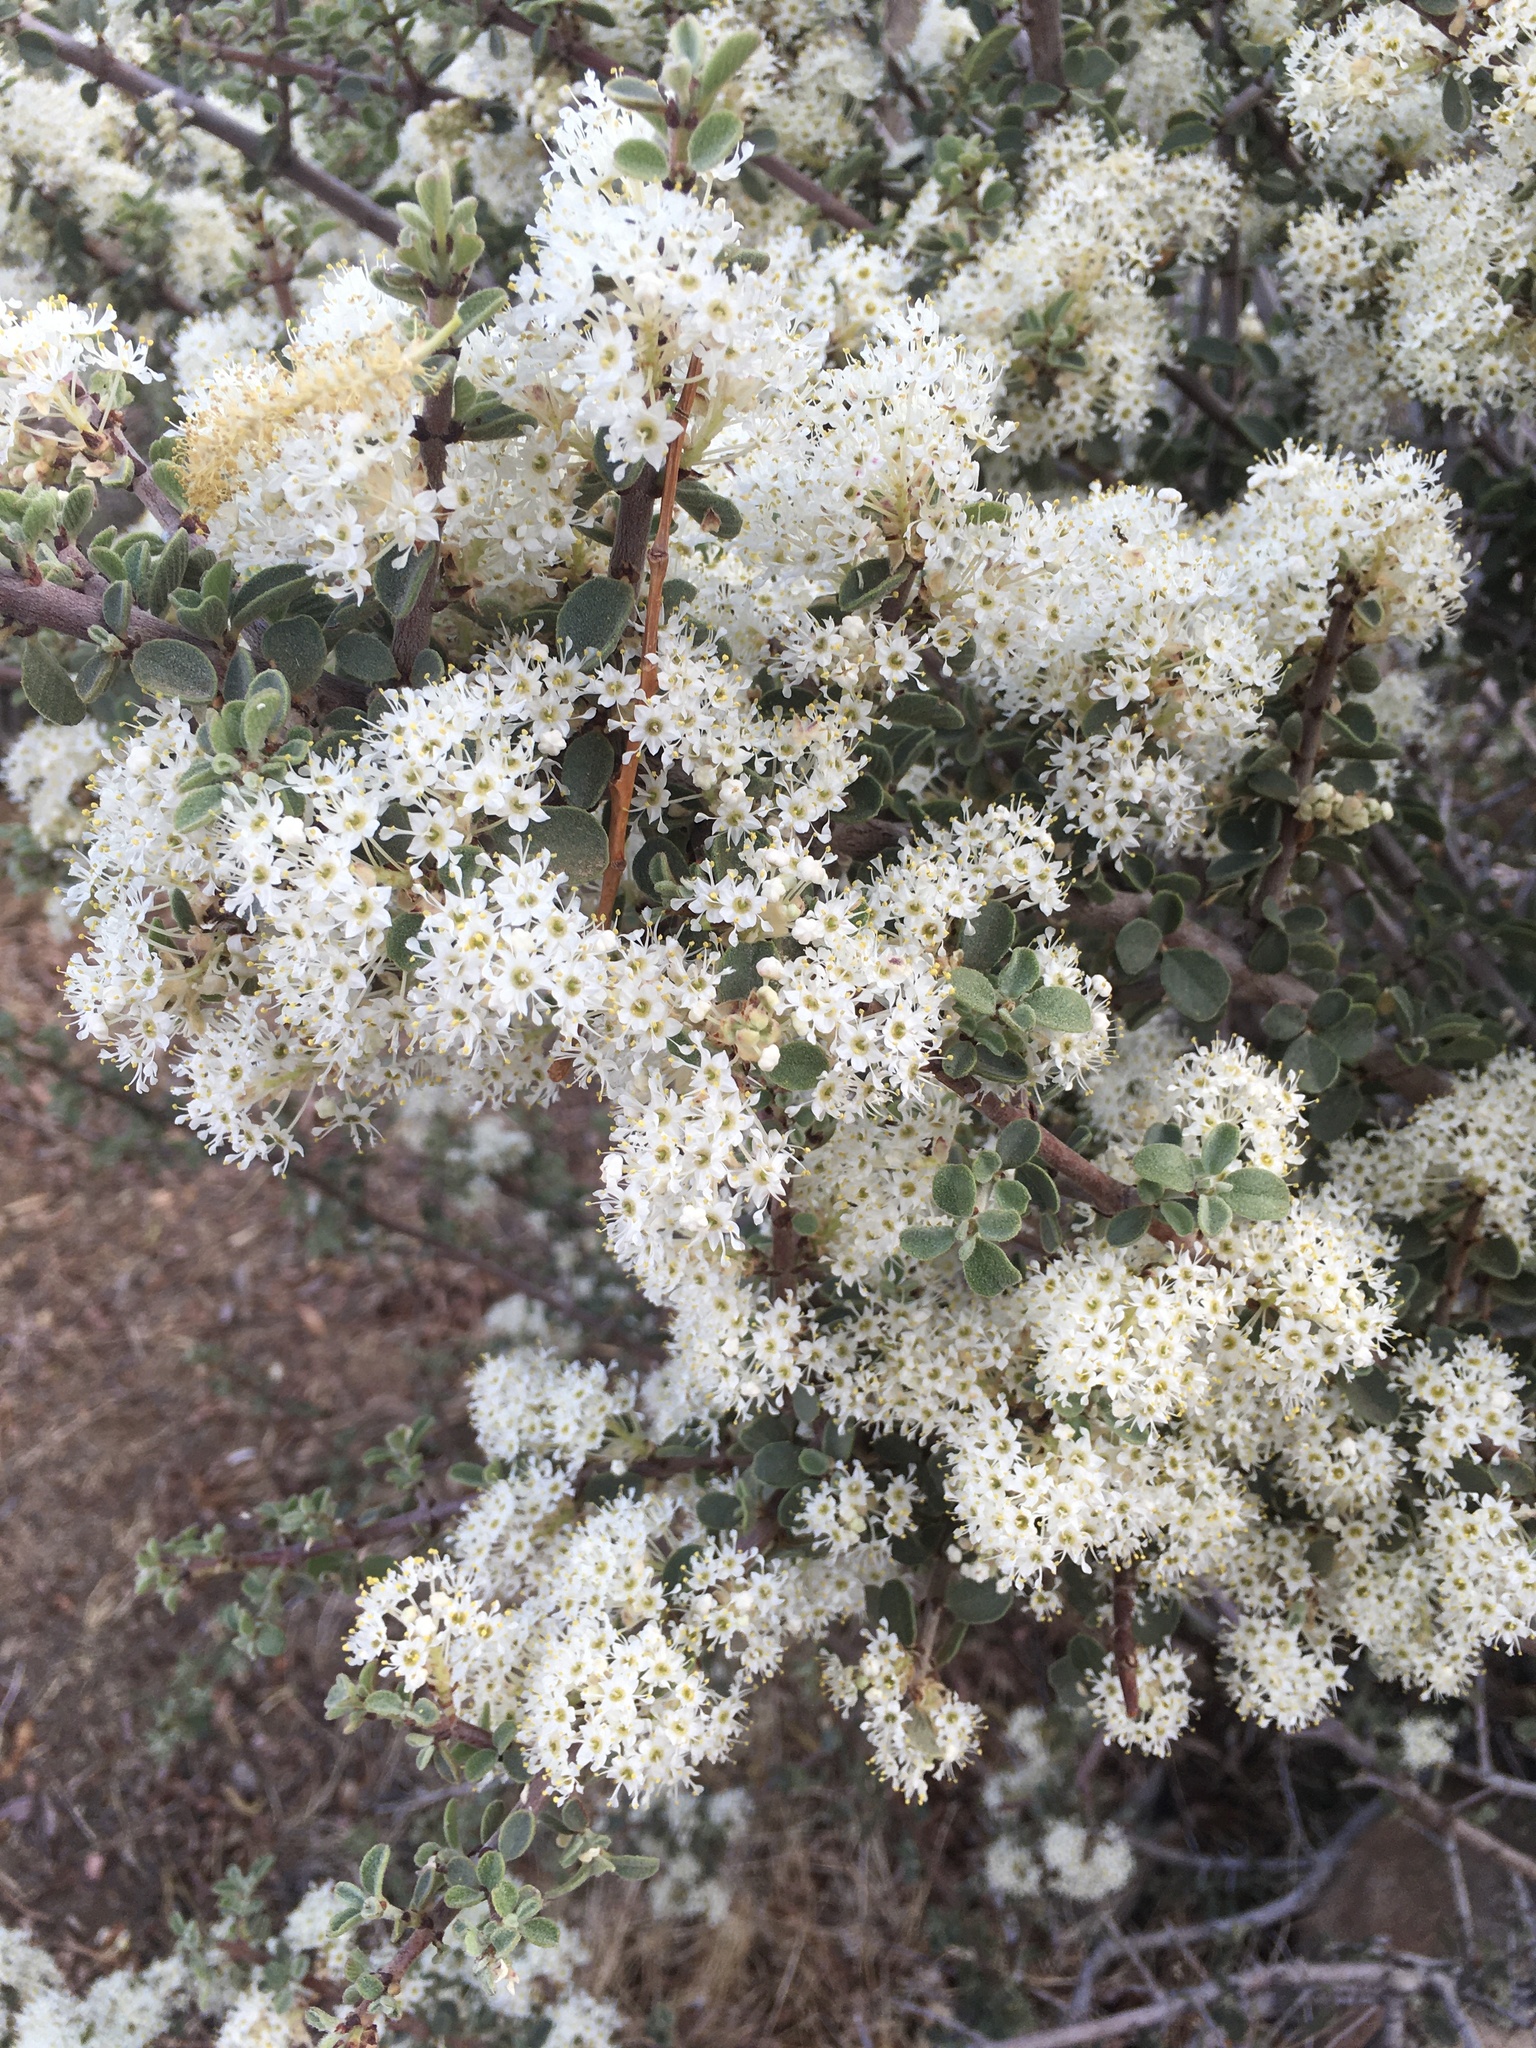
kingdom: Plantae
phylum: Tracheophyta
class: Magnoliopsida
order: Rosales
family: Rhamnaceae
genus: Ceanothus
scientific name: Ceanothus pauciflorus
